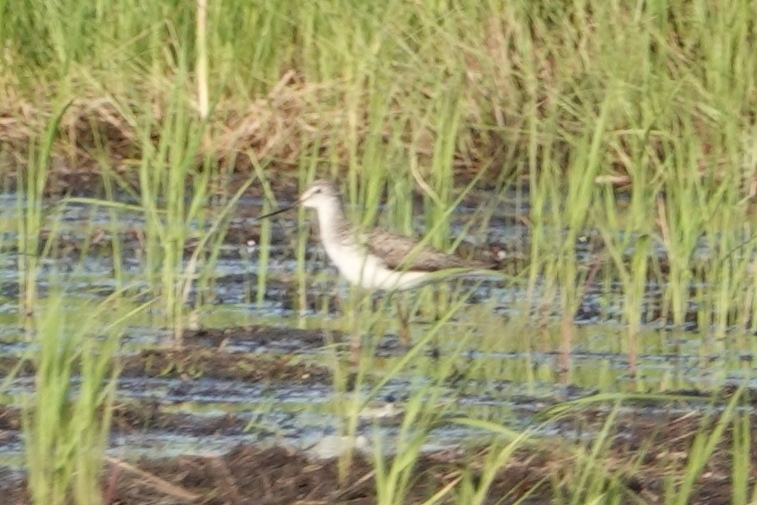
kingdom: Animalia
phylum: Chordata
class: Aves
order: Charadriiformes
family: Scolopacidae
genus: Tringa
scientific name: Tringa stagnatilis
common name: Marsh sandpiper
